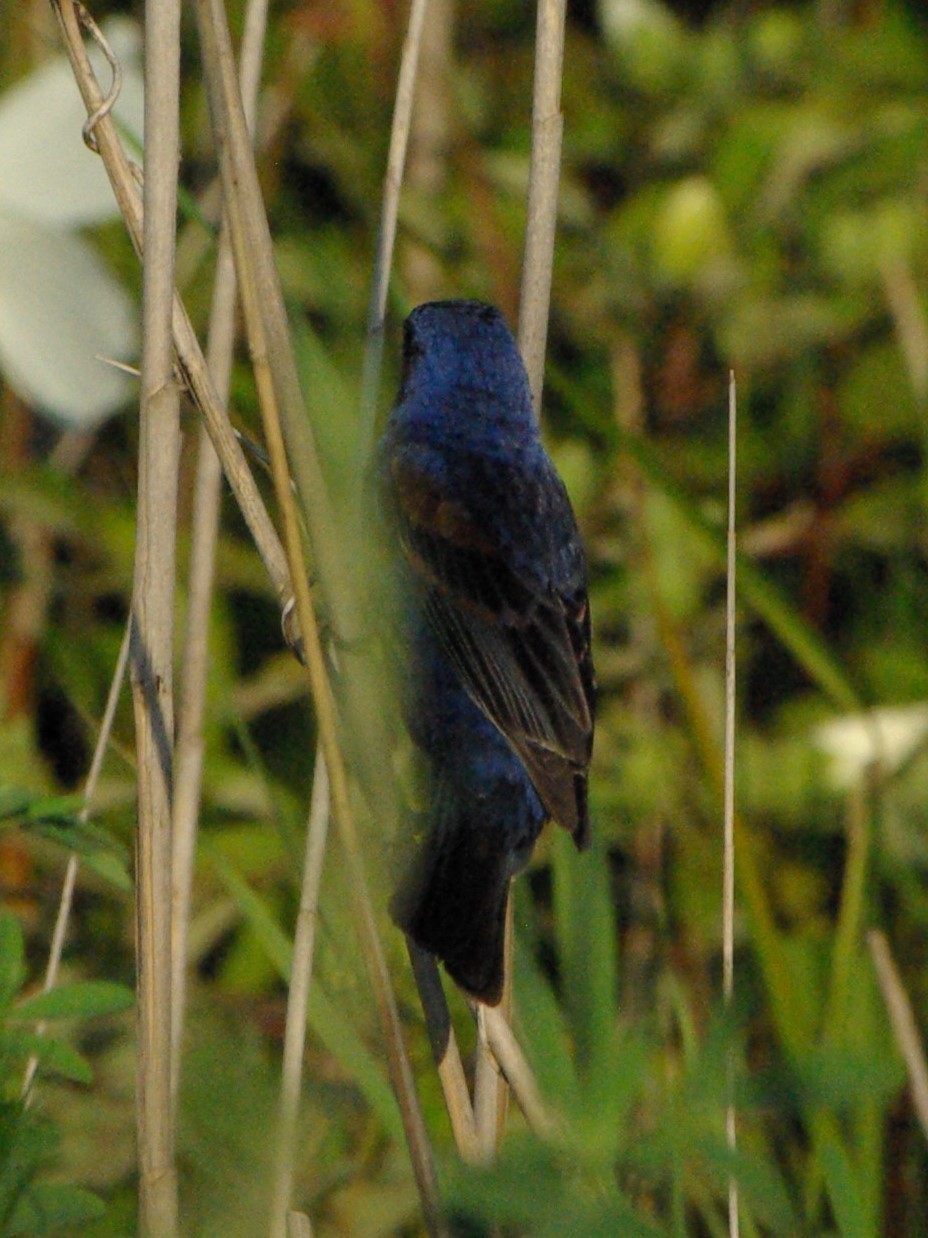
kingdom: Animalia
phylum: Chordata
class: Aves
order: Passeriformes
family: Cardinalidae
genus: Passerina
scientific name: Passerina caerulea
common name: Blue grosbeak
